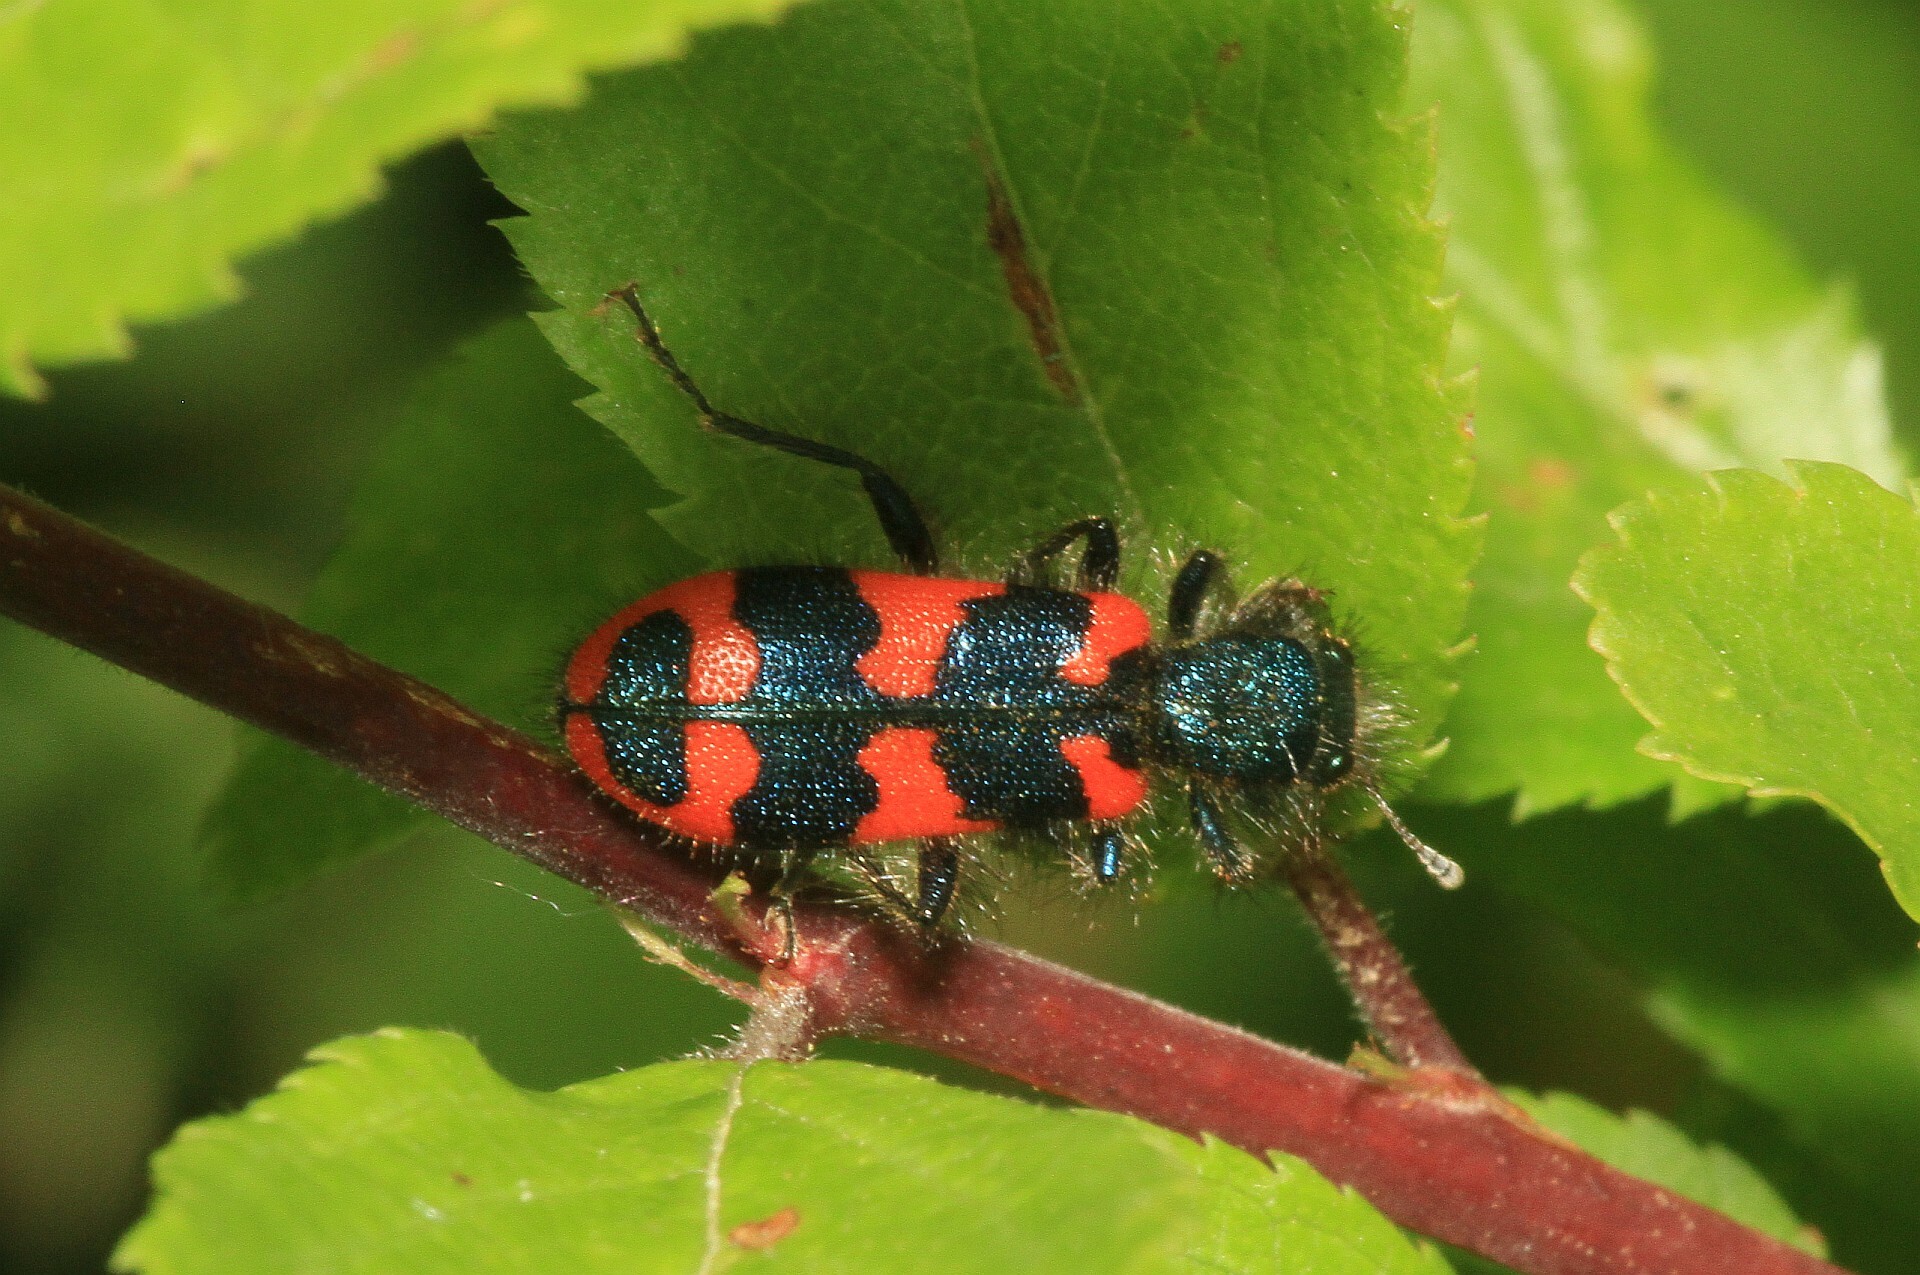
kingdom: Animalia
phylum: Arthropoda
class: Insecta
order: Coleoptera
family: Cleridae
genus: Trichodes
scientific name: Trichodes alvearius
